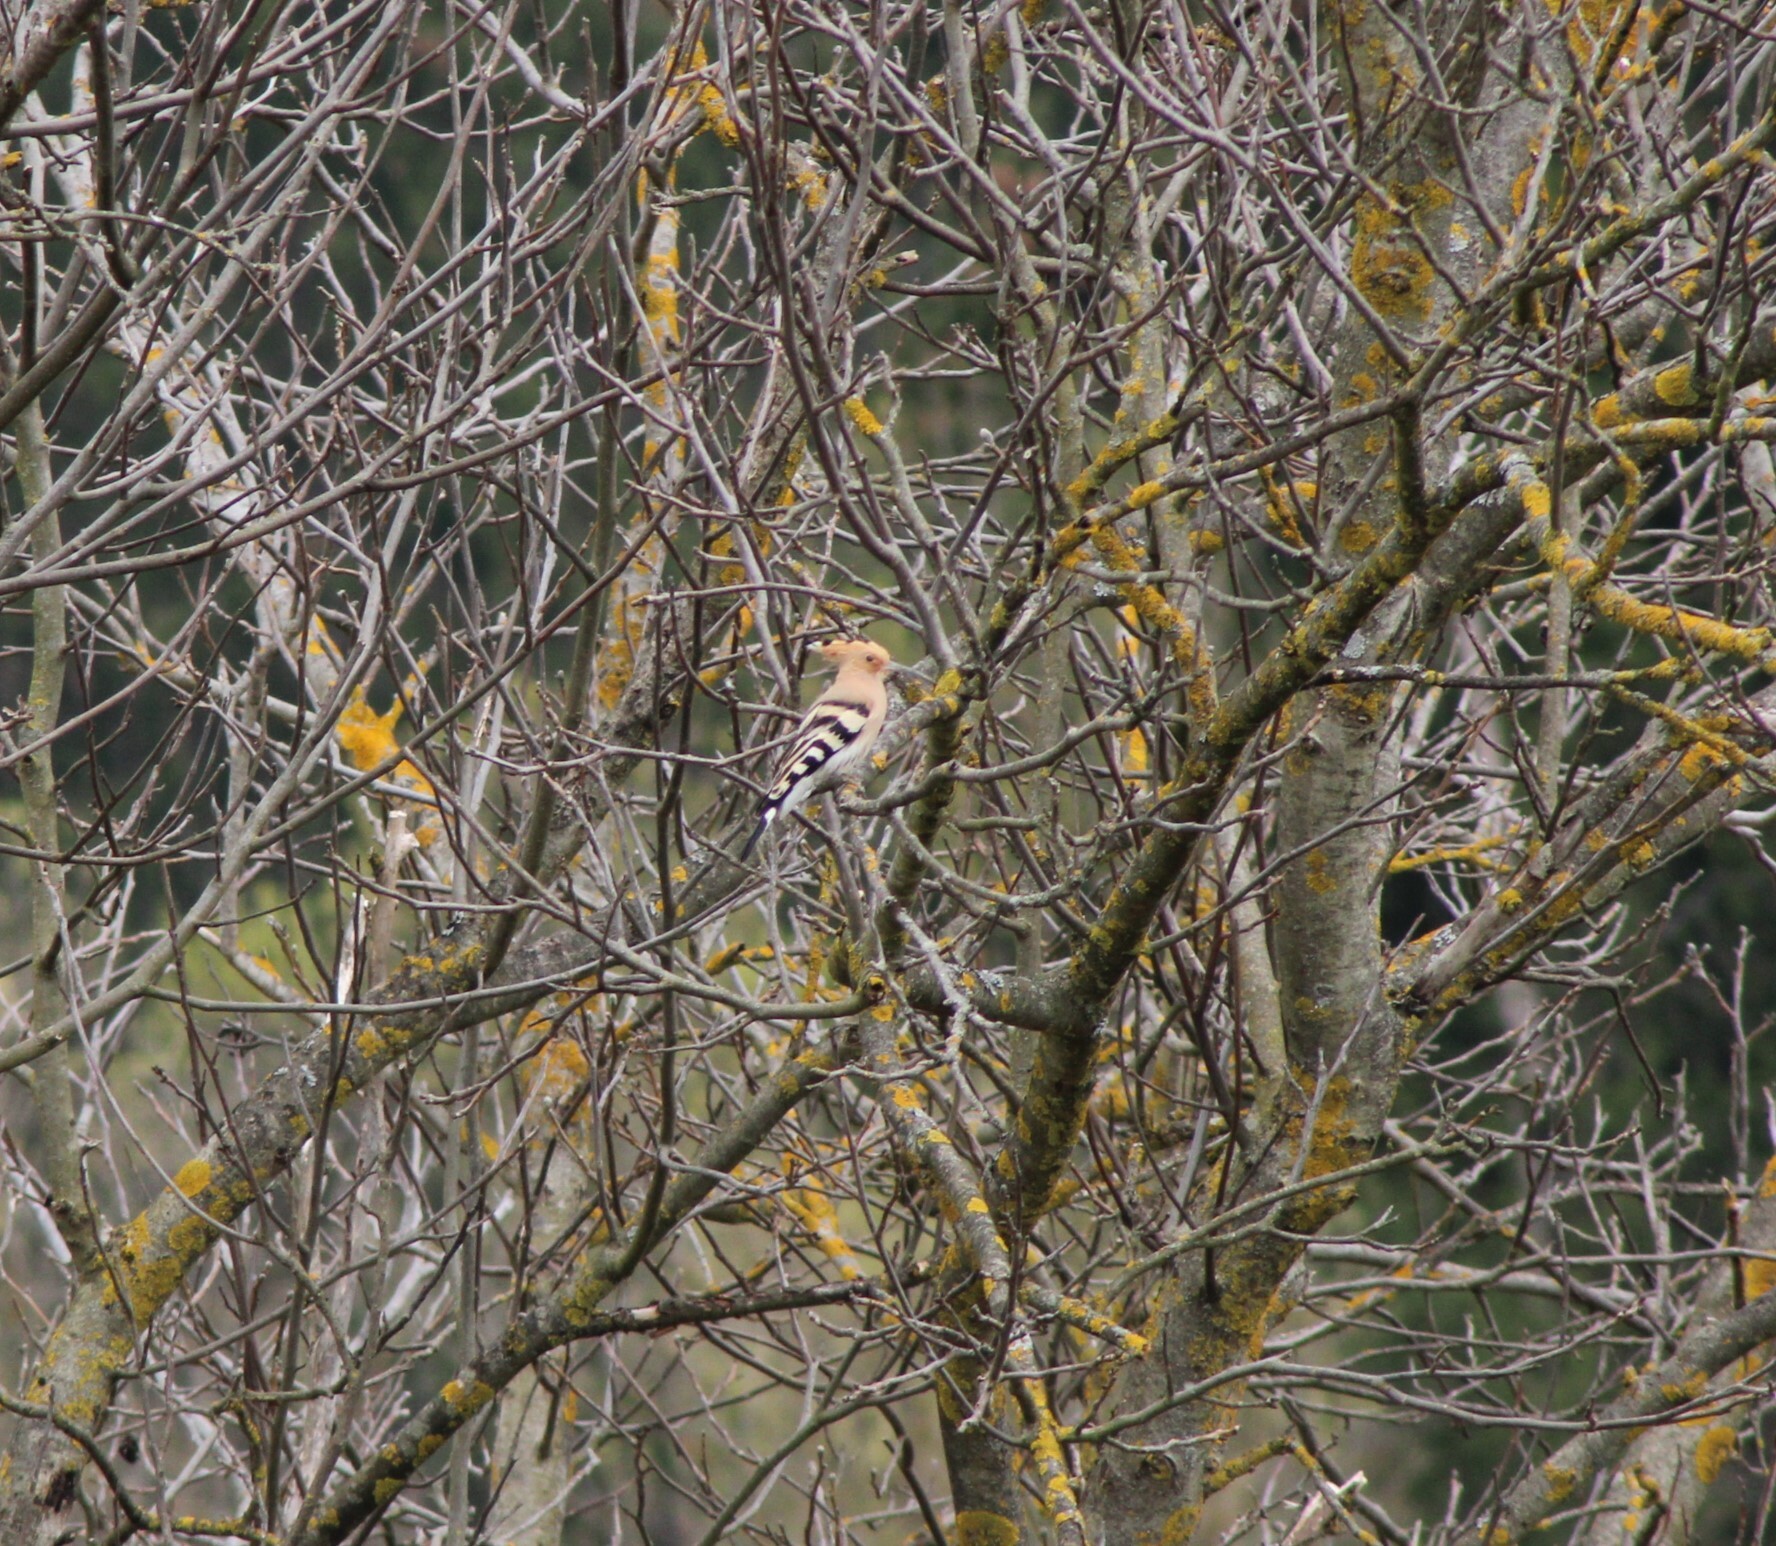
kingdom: Animalia
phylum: Chordata
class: Aves
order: Bucerotiformes
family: Upupidae
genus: Upupa
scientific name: Upupa epops
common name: Eurasian hoopoe
